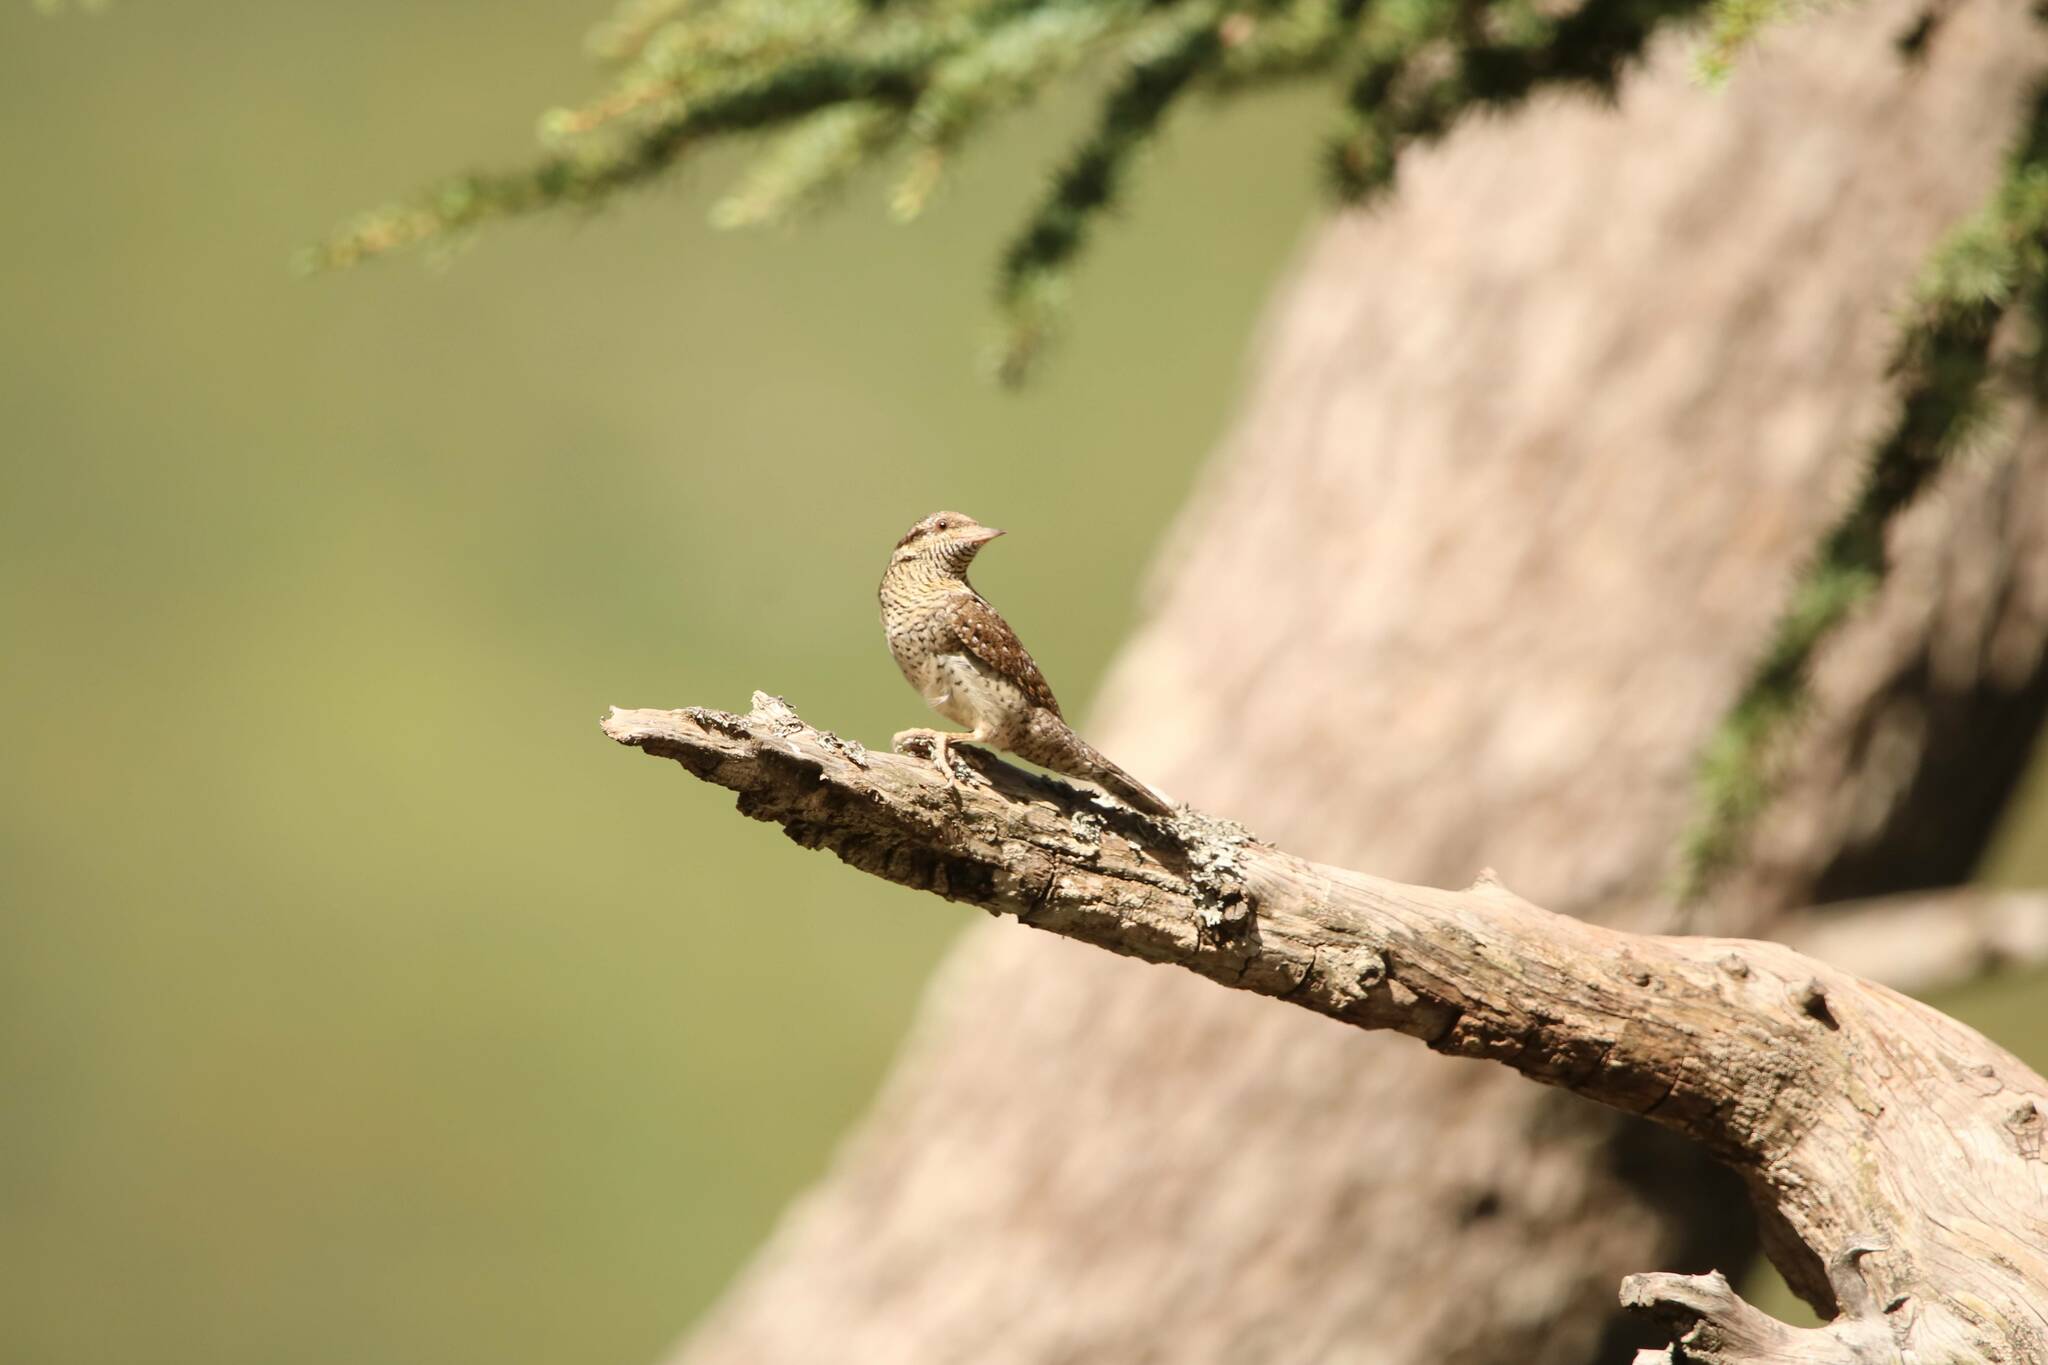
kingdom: Animalia
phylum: Chordata
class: Aves
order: Piciformes
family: Picidae
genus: Jynx
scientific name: Jynx torquilla
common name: Eurasian wryneck
